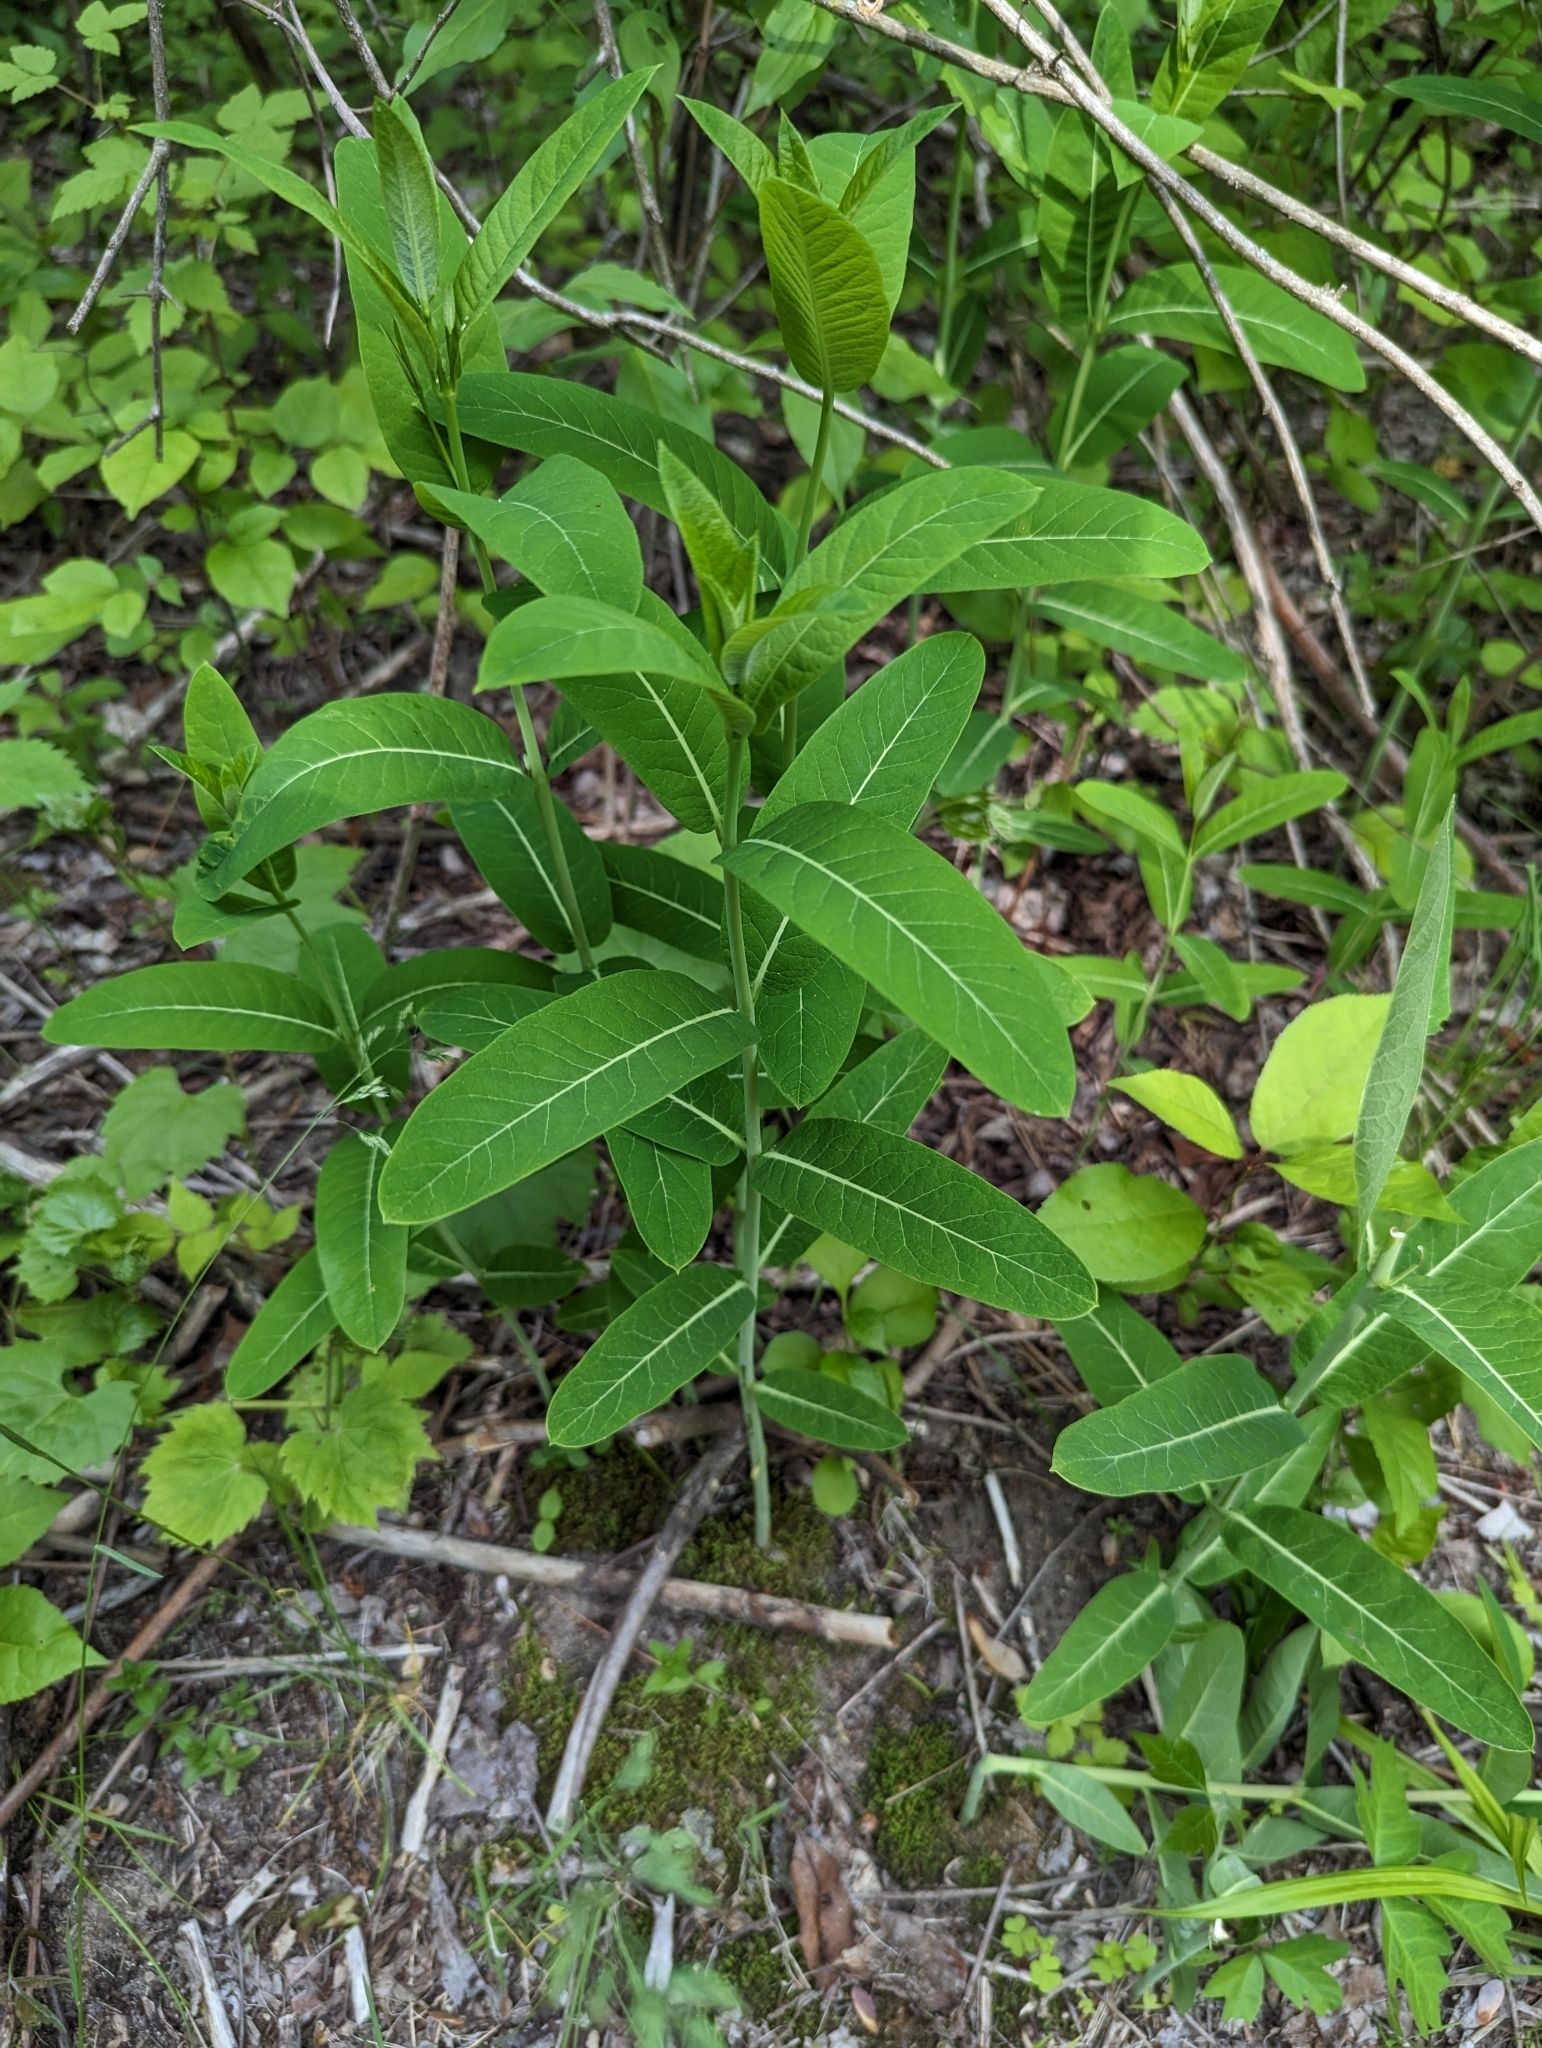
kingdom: Plantae
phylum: Tracheophyta
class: Magnoliopsida
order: Gentianales
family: Apocynaceae
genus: Apocynum
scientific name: Apocynum cannabinum
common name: Hemp dogbane
